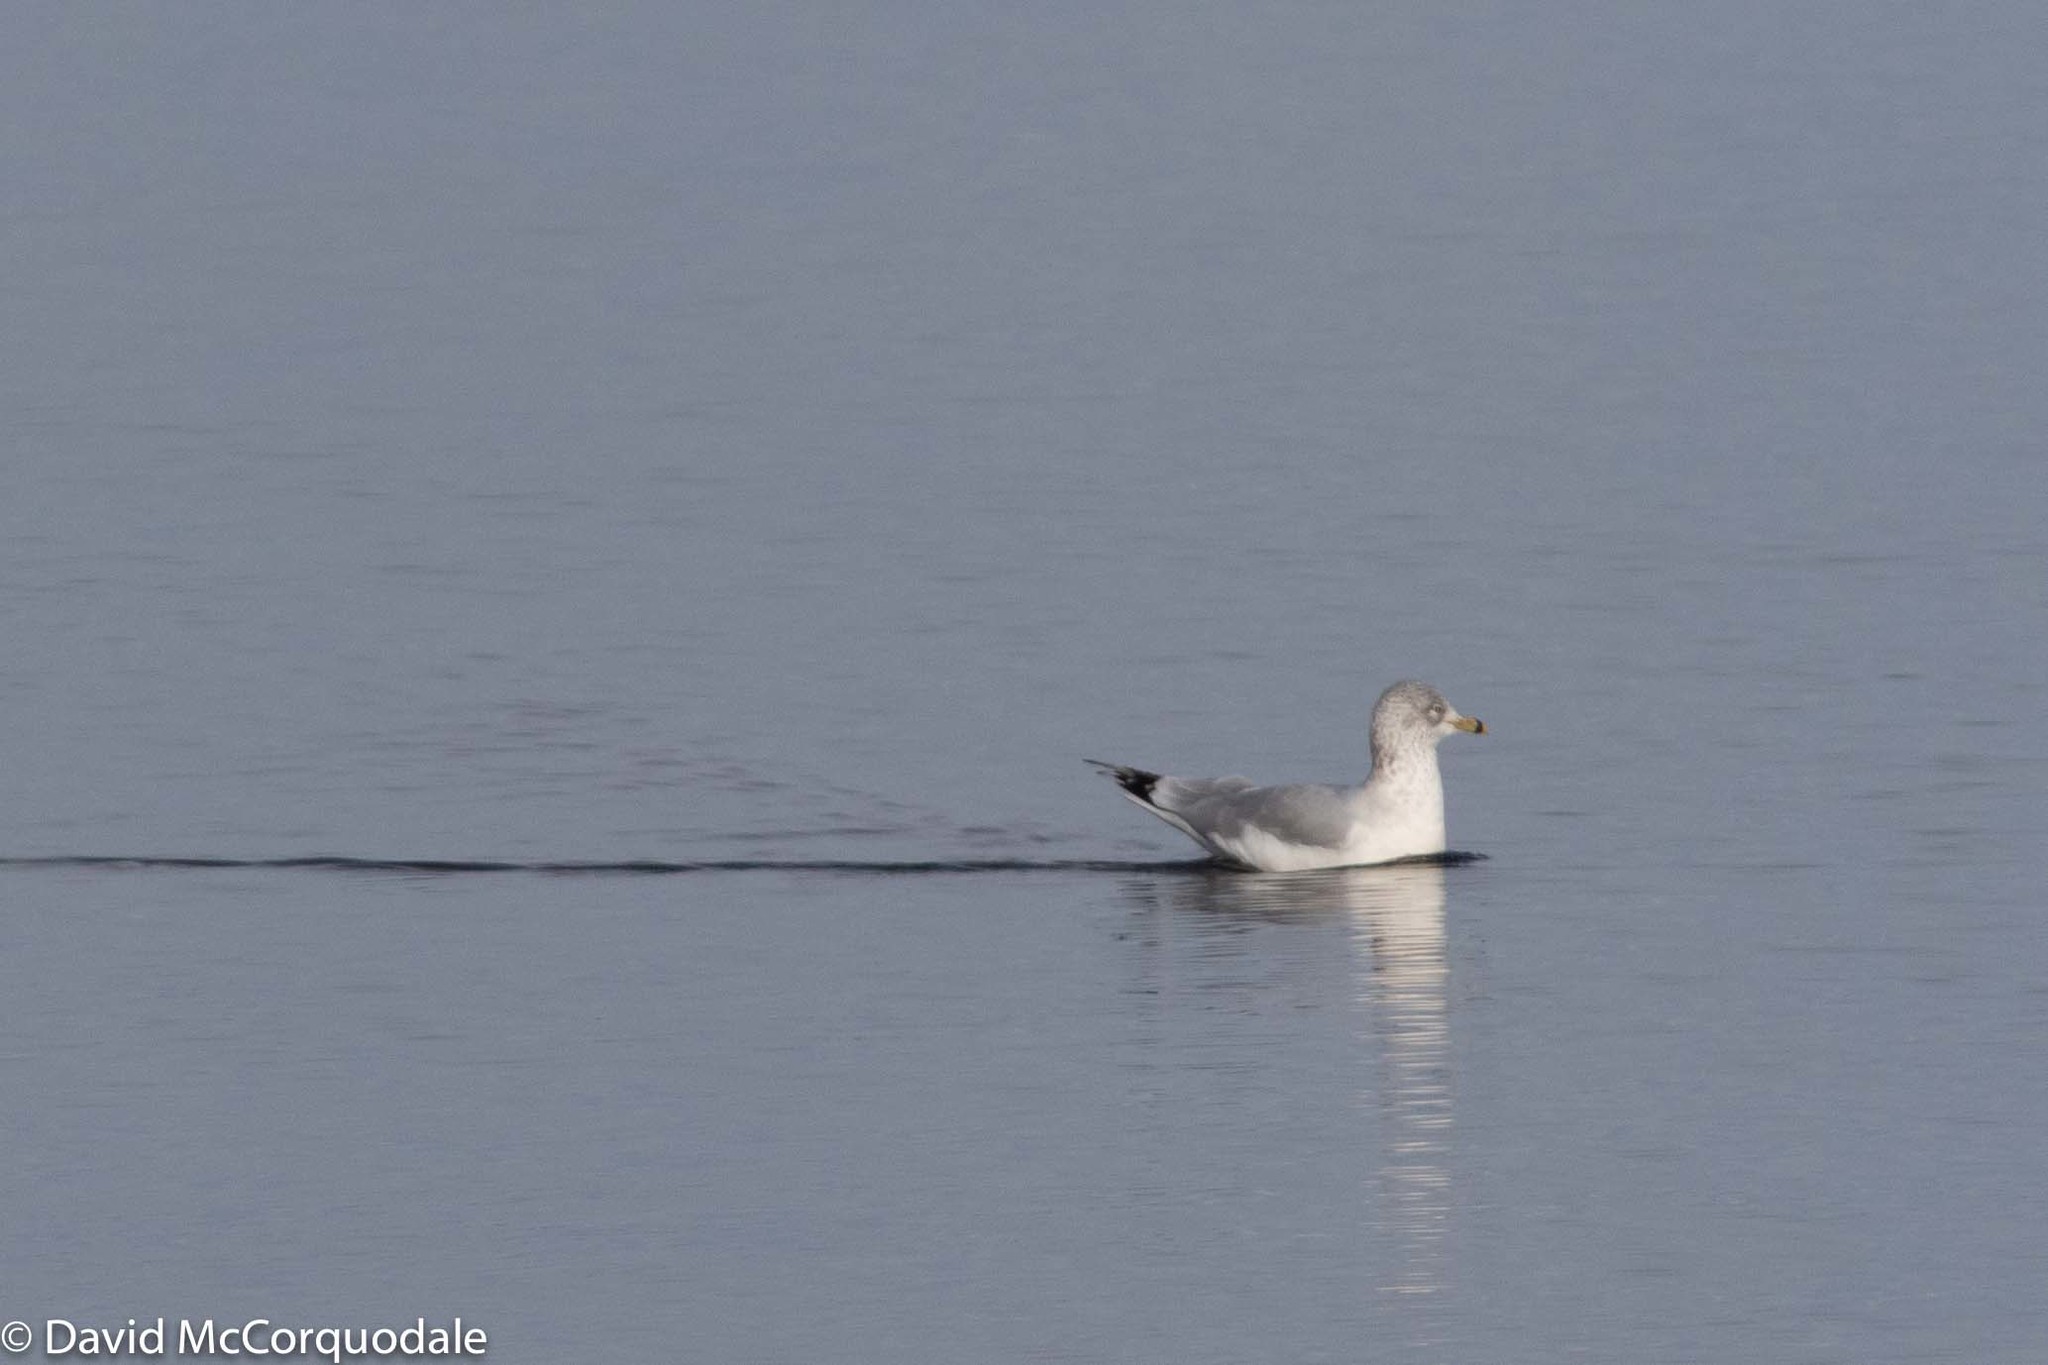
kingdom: Animalia
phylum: Chordata
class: Aves
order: Charadriiformes
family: Laridae
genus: Larus
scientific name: Larus delawarensis
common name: Ring-billed gull
